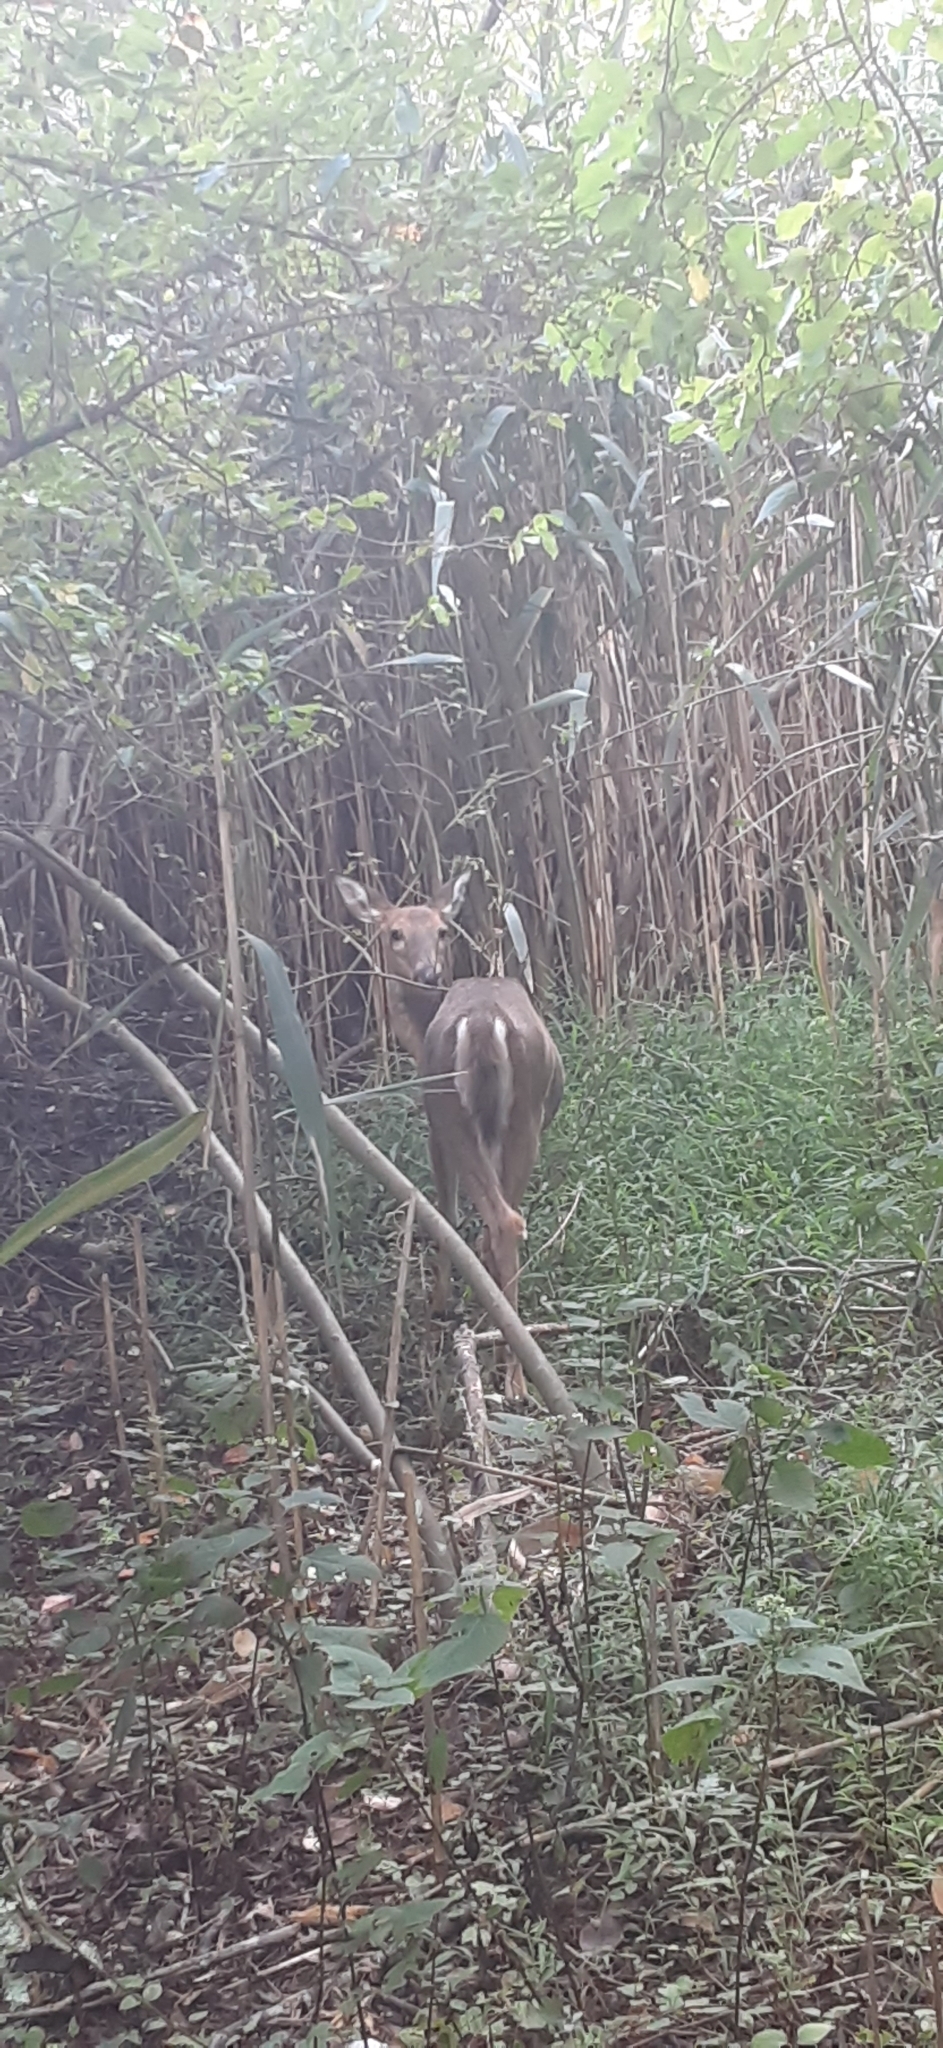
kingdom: Animalia
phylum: Chordata
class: Mammalia
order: Artiodactyla
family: Cervidae
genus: Odocoileus
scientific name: Odocoileus virginianus
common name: White-tailed deer
